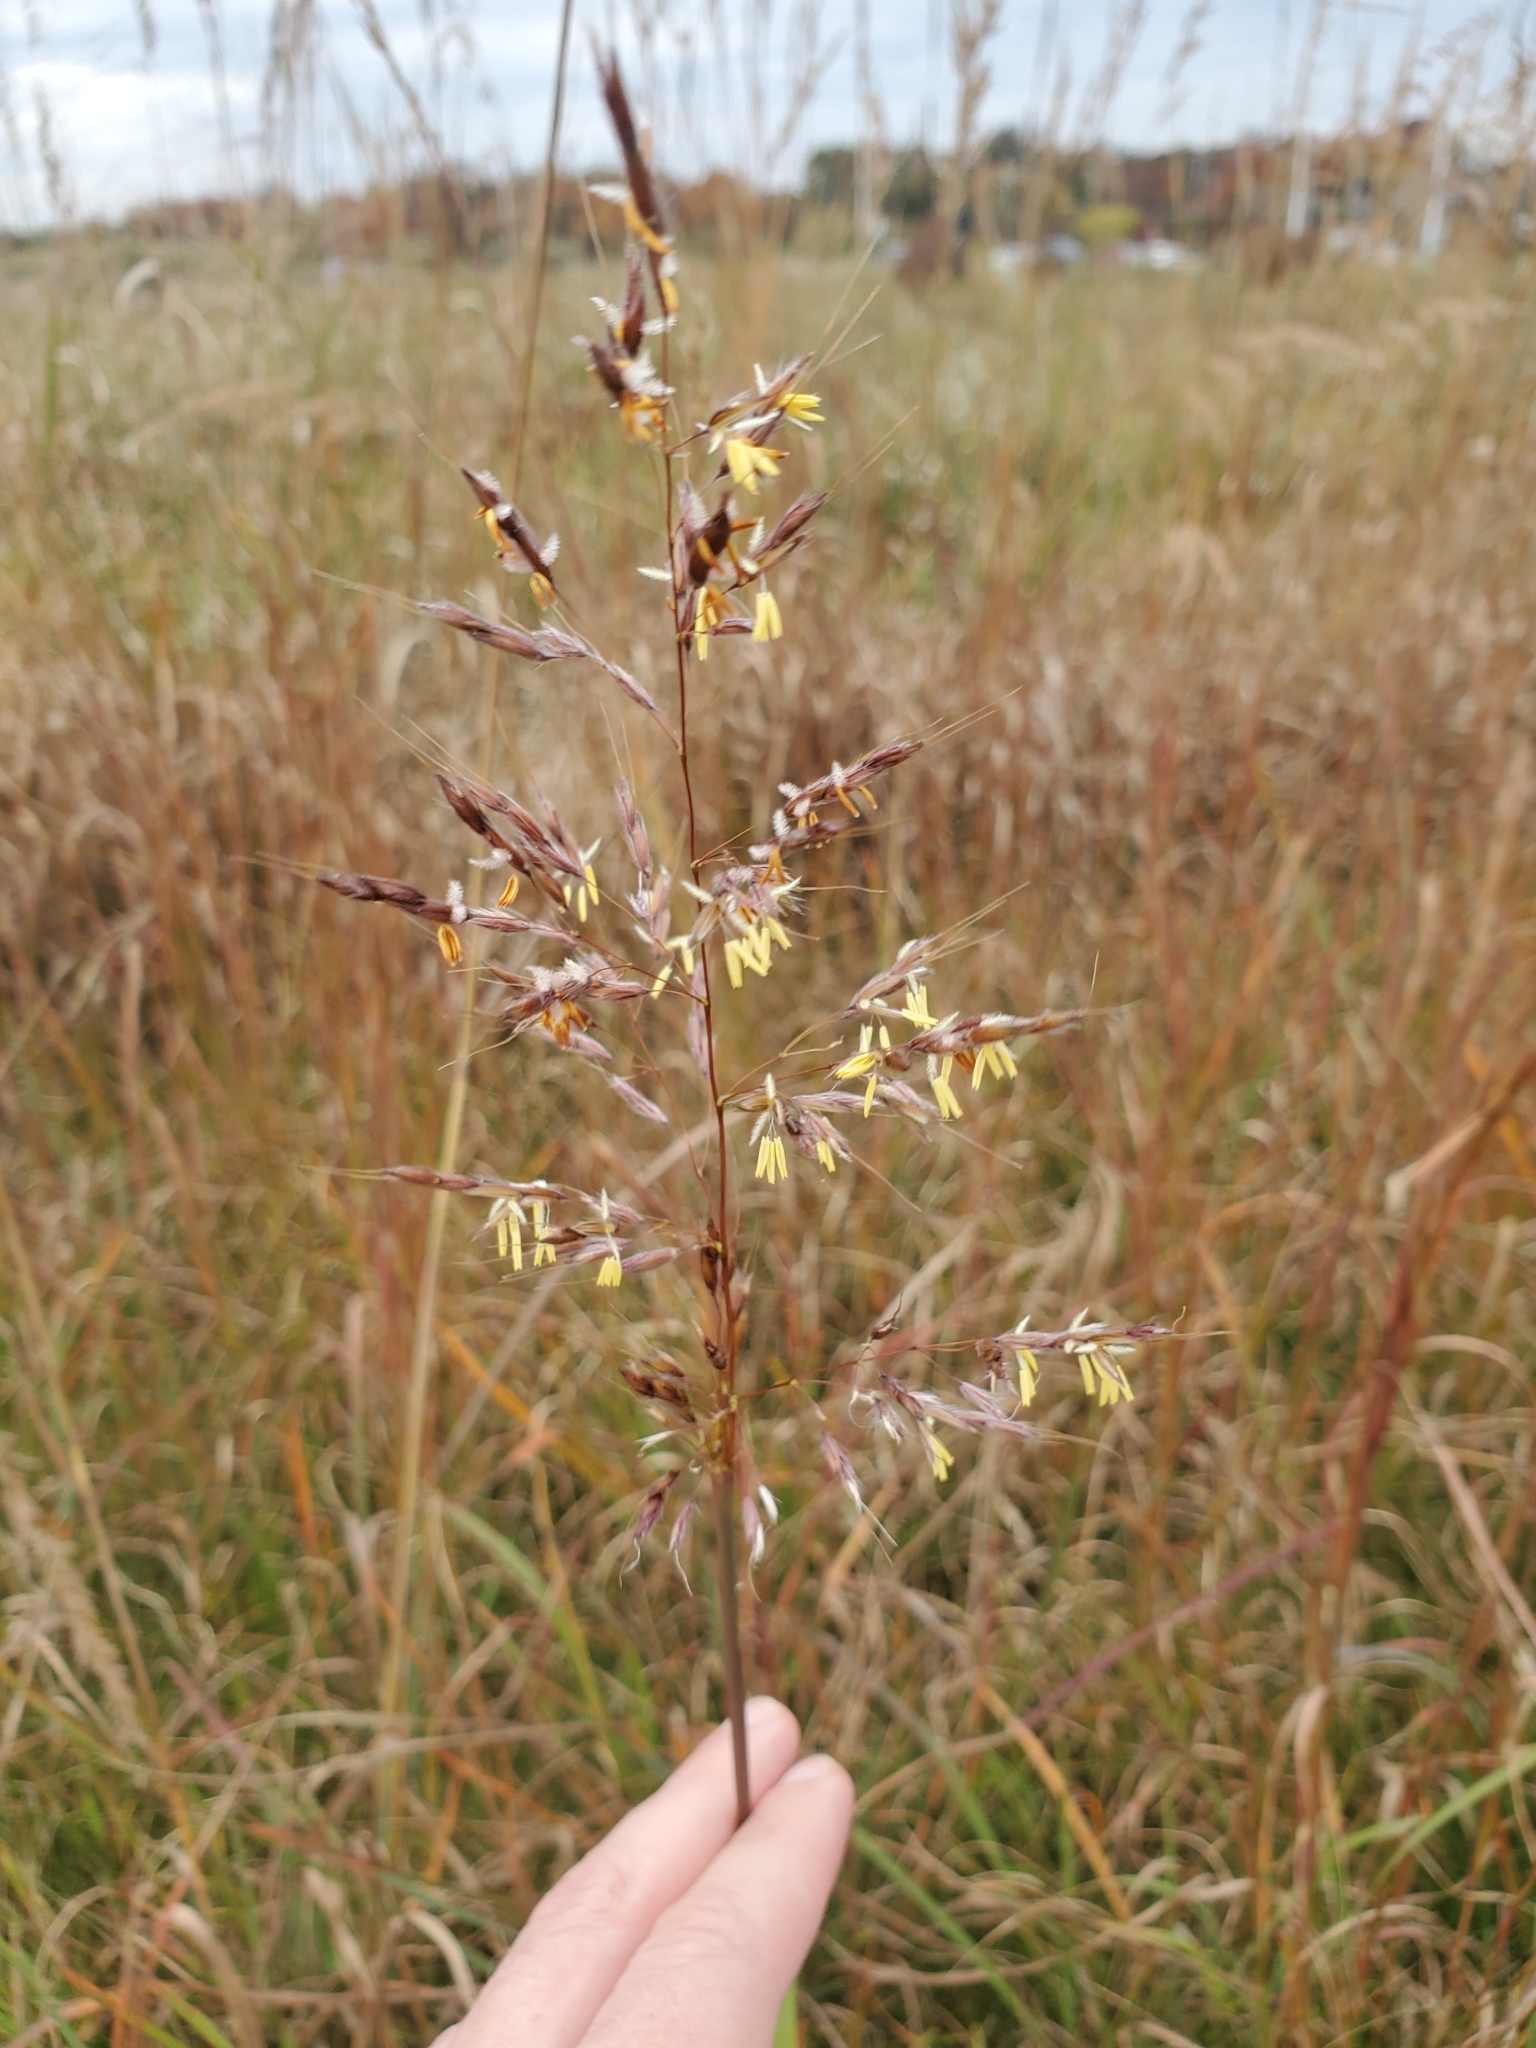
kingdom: Plantae
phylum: Tracheophyta
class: Liliopsida
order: Poales
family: Poaceae
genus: Sorghastrum
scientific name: Sorghastrum nutans
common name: Indian grass
